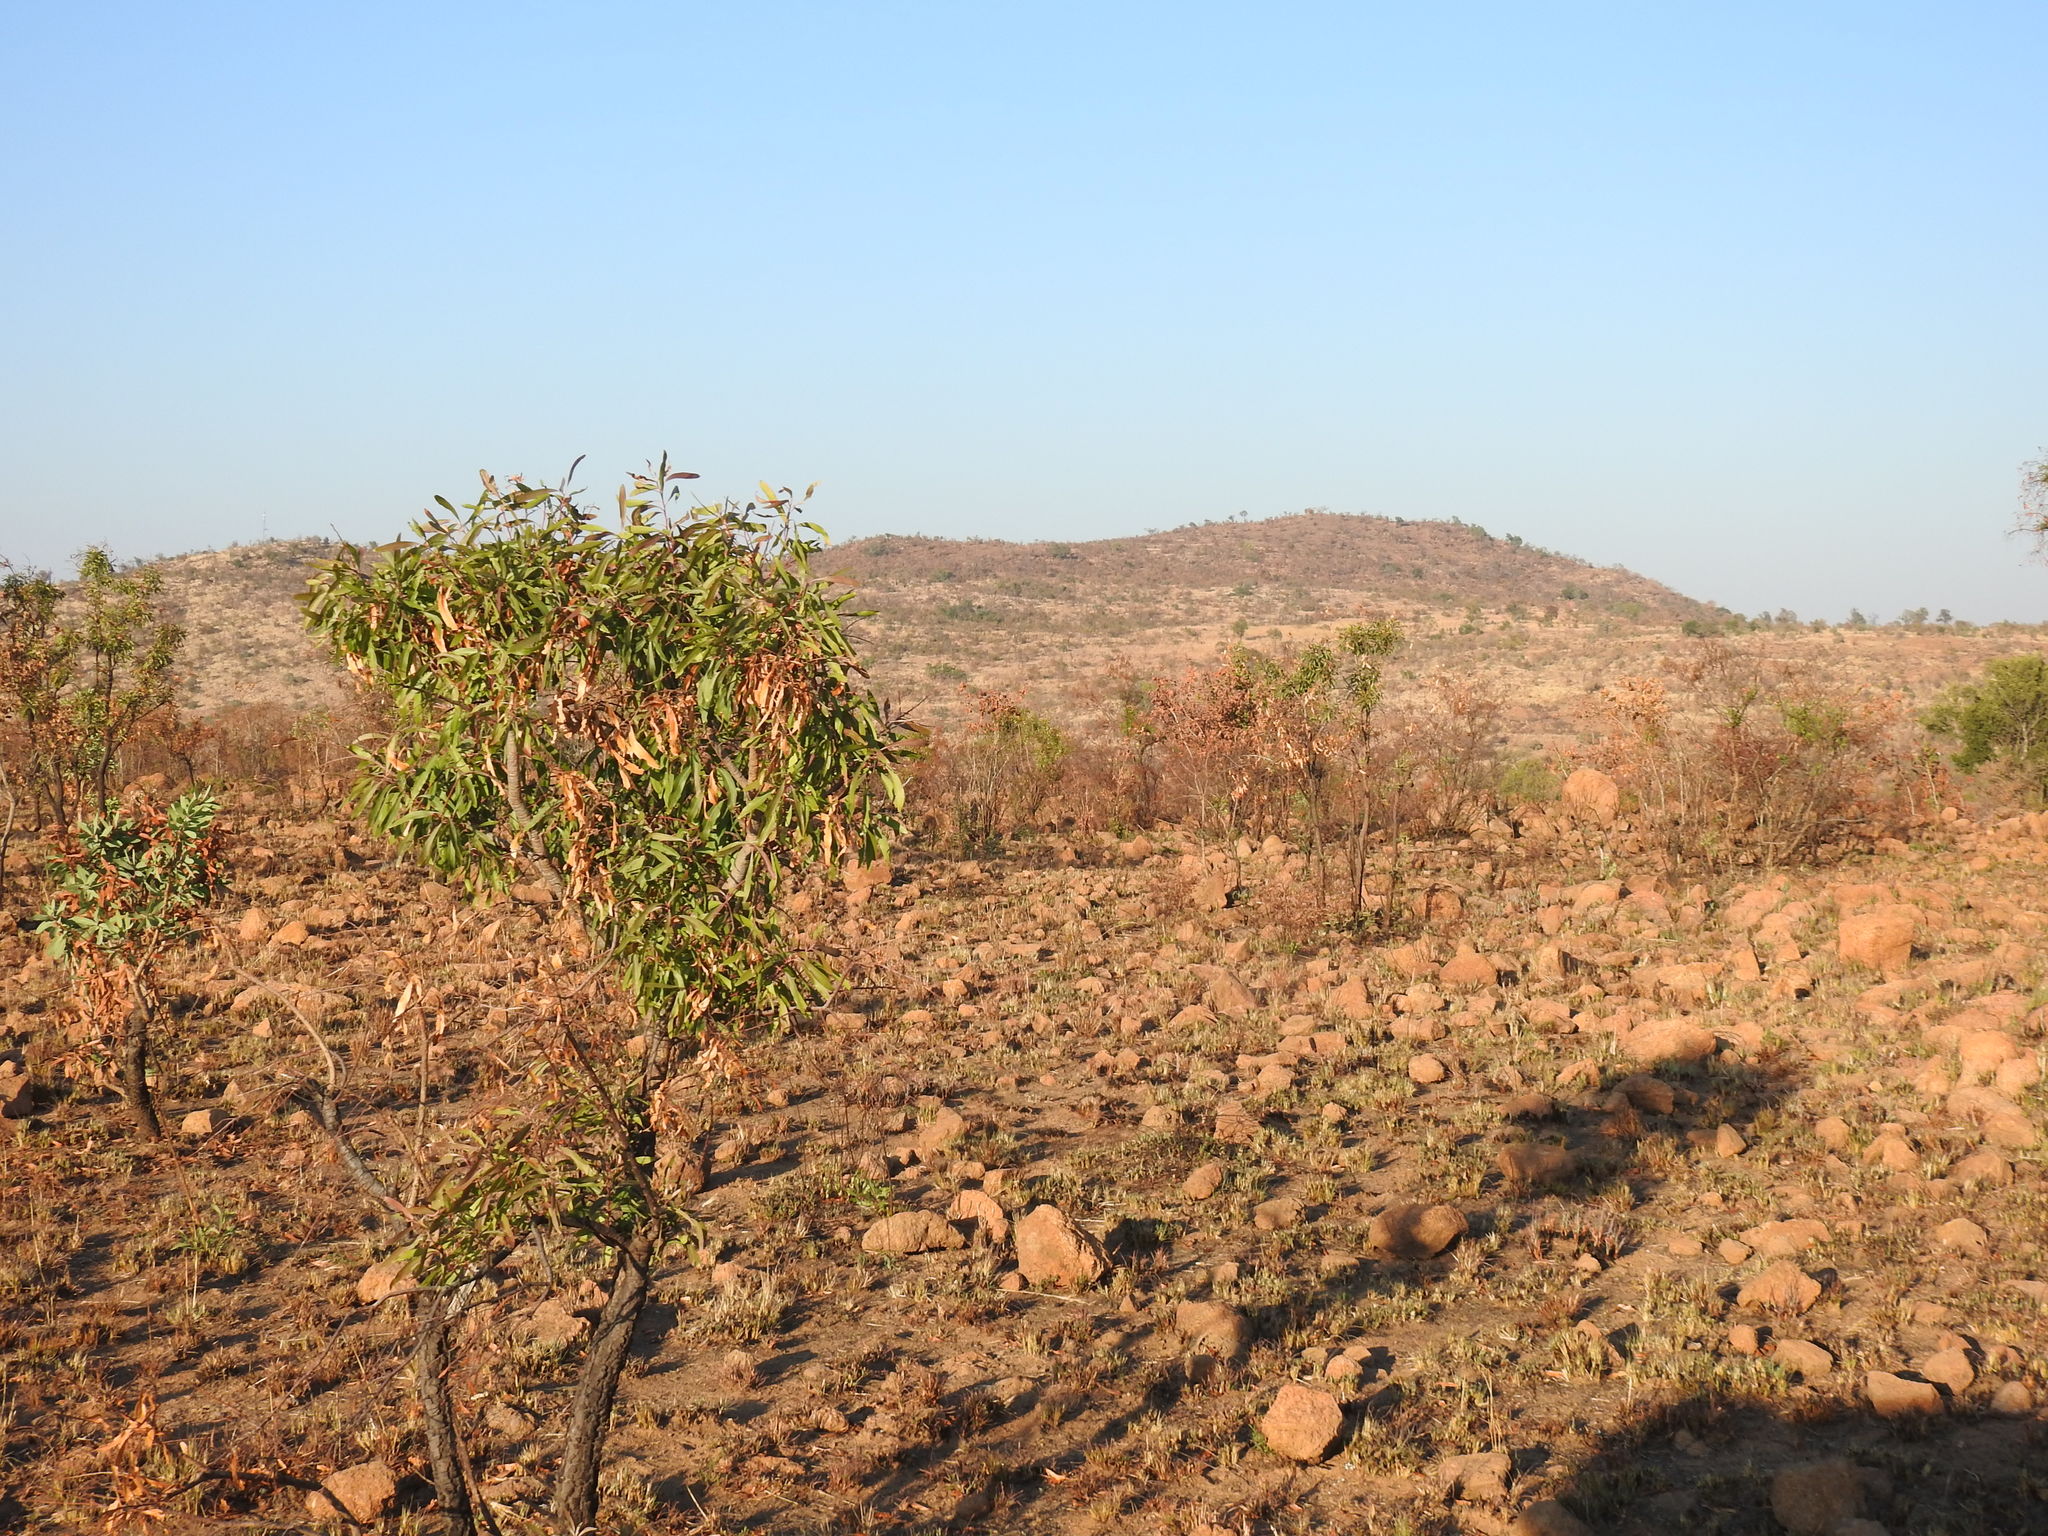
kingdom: Plantae
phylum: Tracheophyta
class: Magnoliopsida
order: Proteales
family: Proteaceae
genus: Faurea
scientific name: Faurea saligna
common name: African bean
